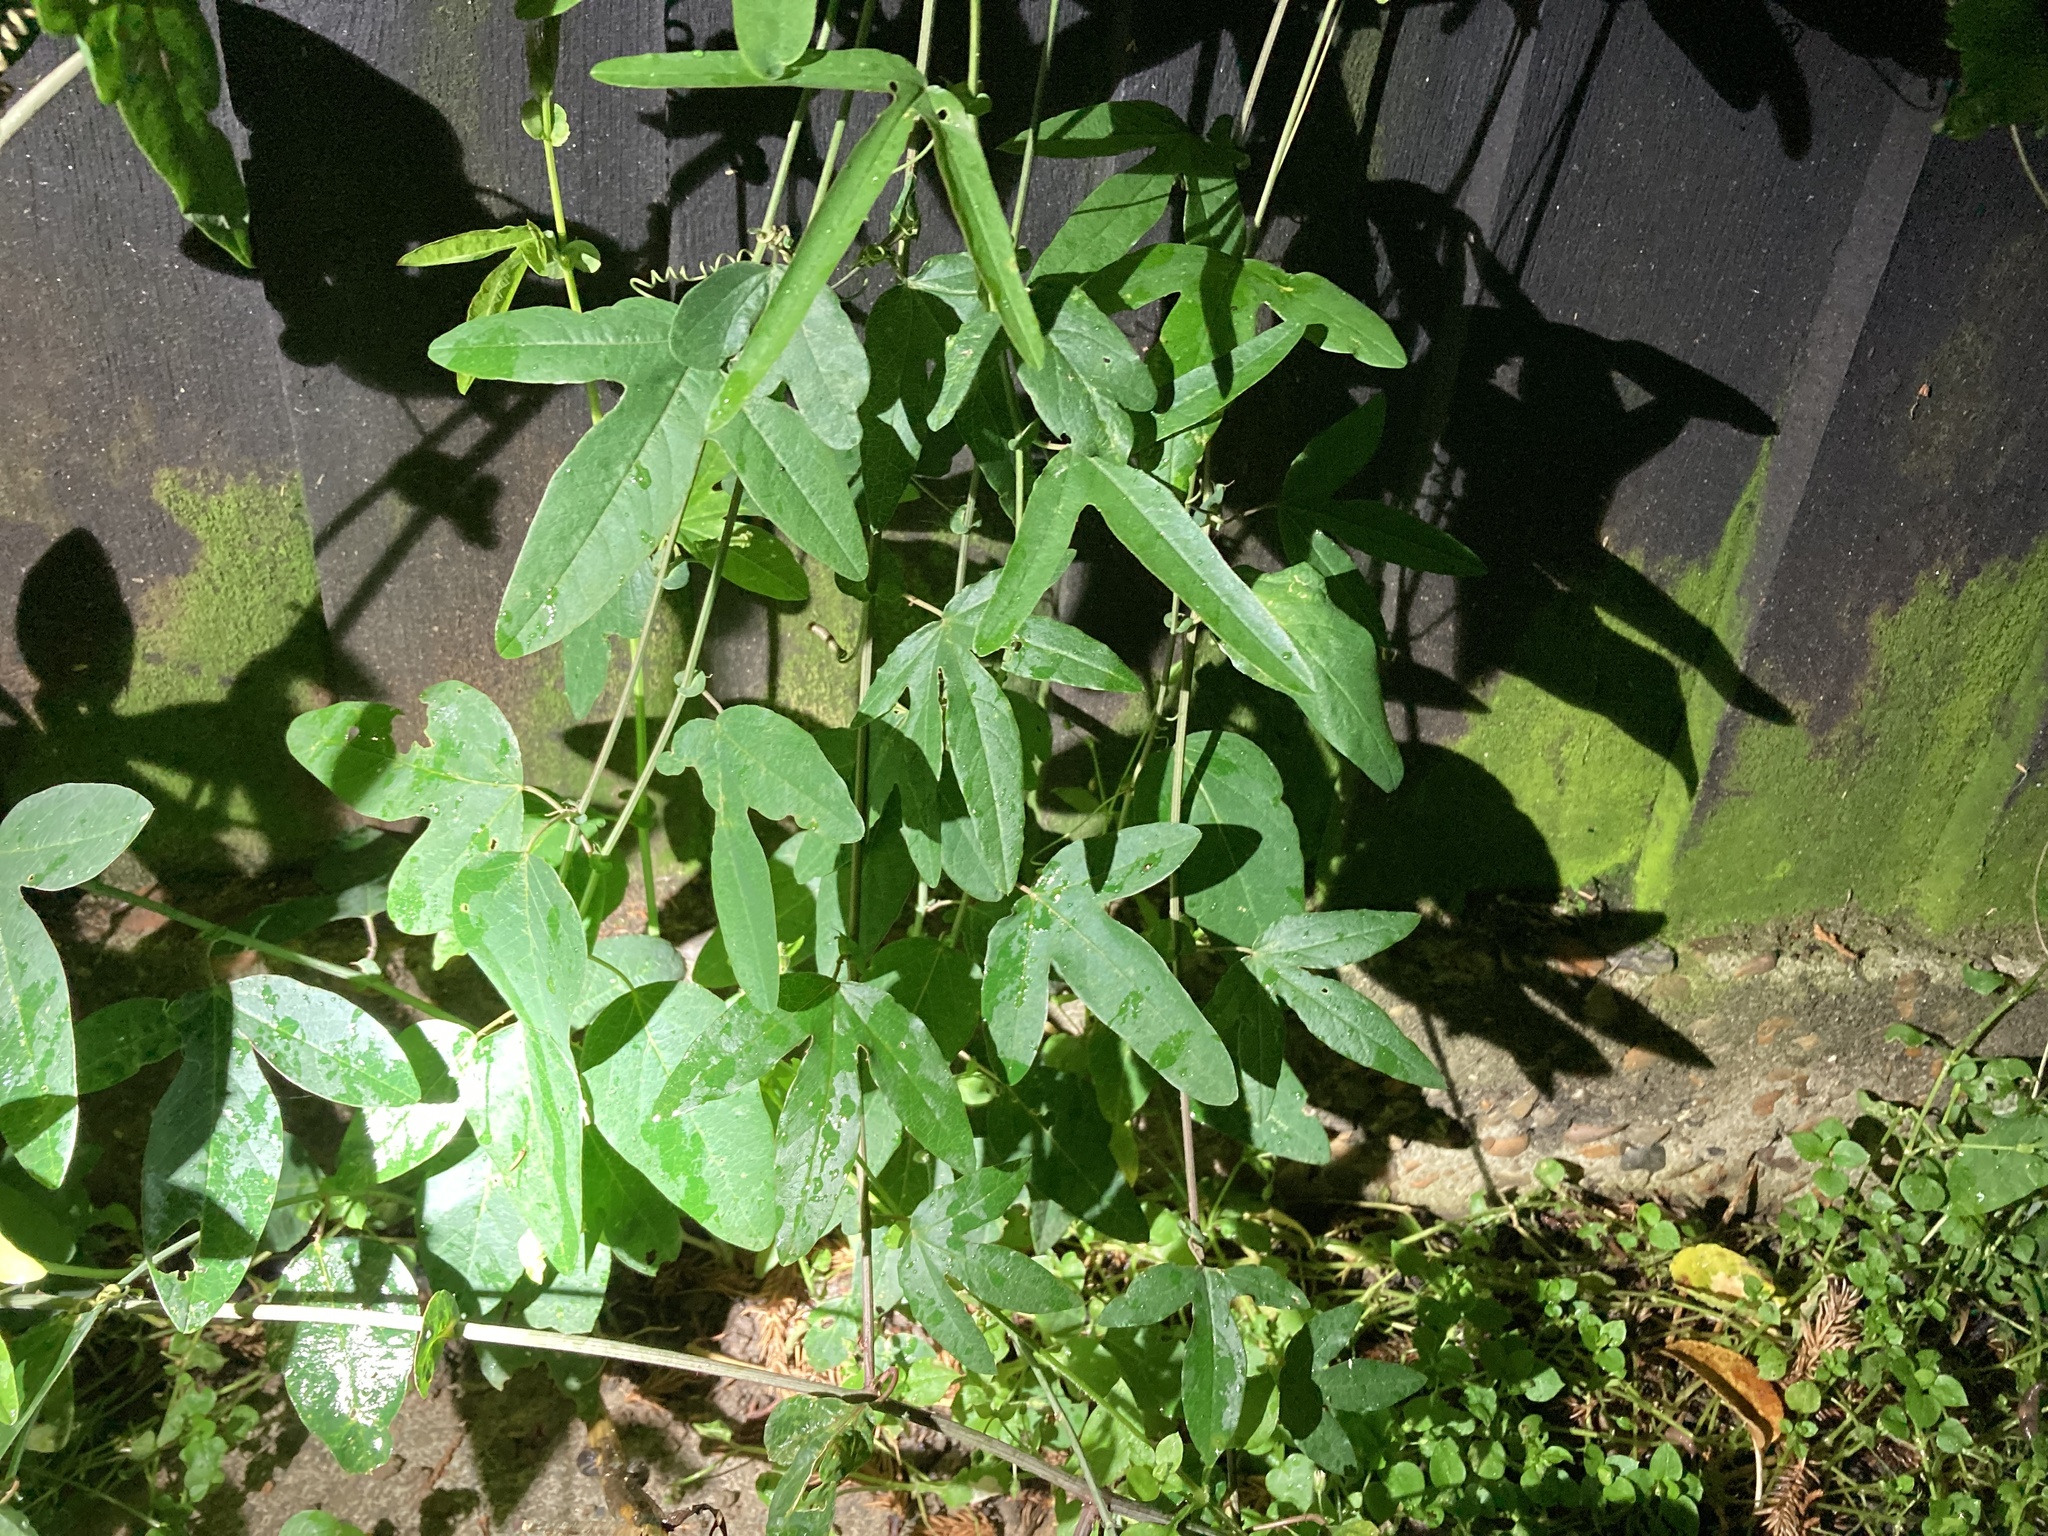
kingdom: Plantae
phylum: Tracheophyta
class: Magnoliopsida
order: Malpighiales
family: Passifloraceae
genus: Passiflora
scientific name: Passiflora caerulea
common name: Blue passionflower
